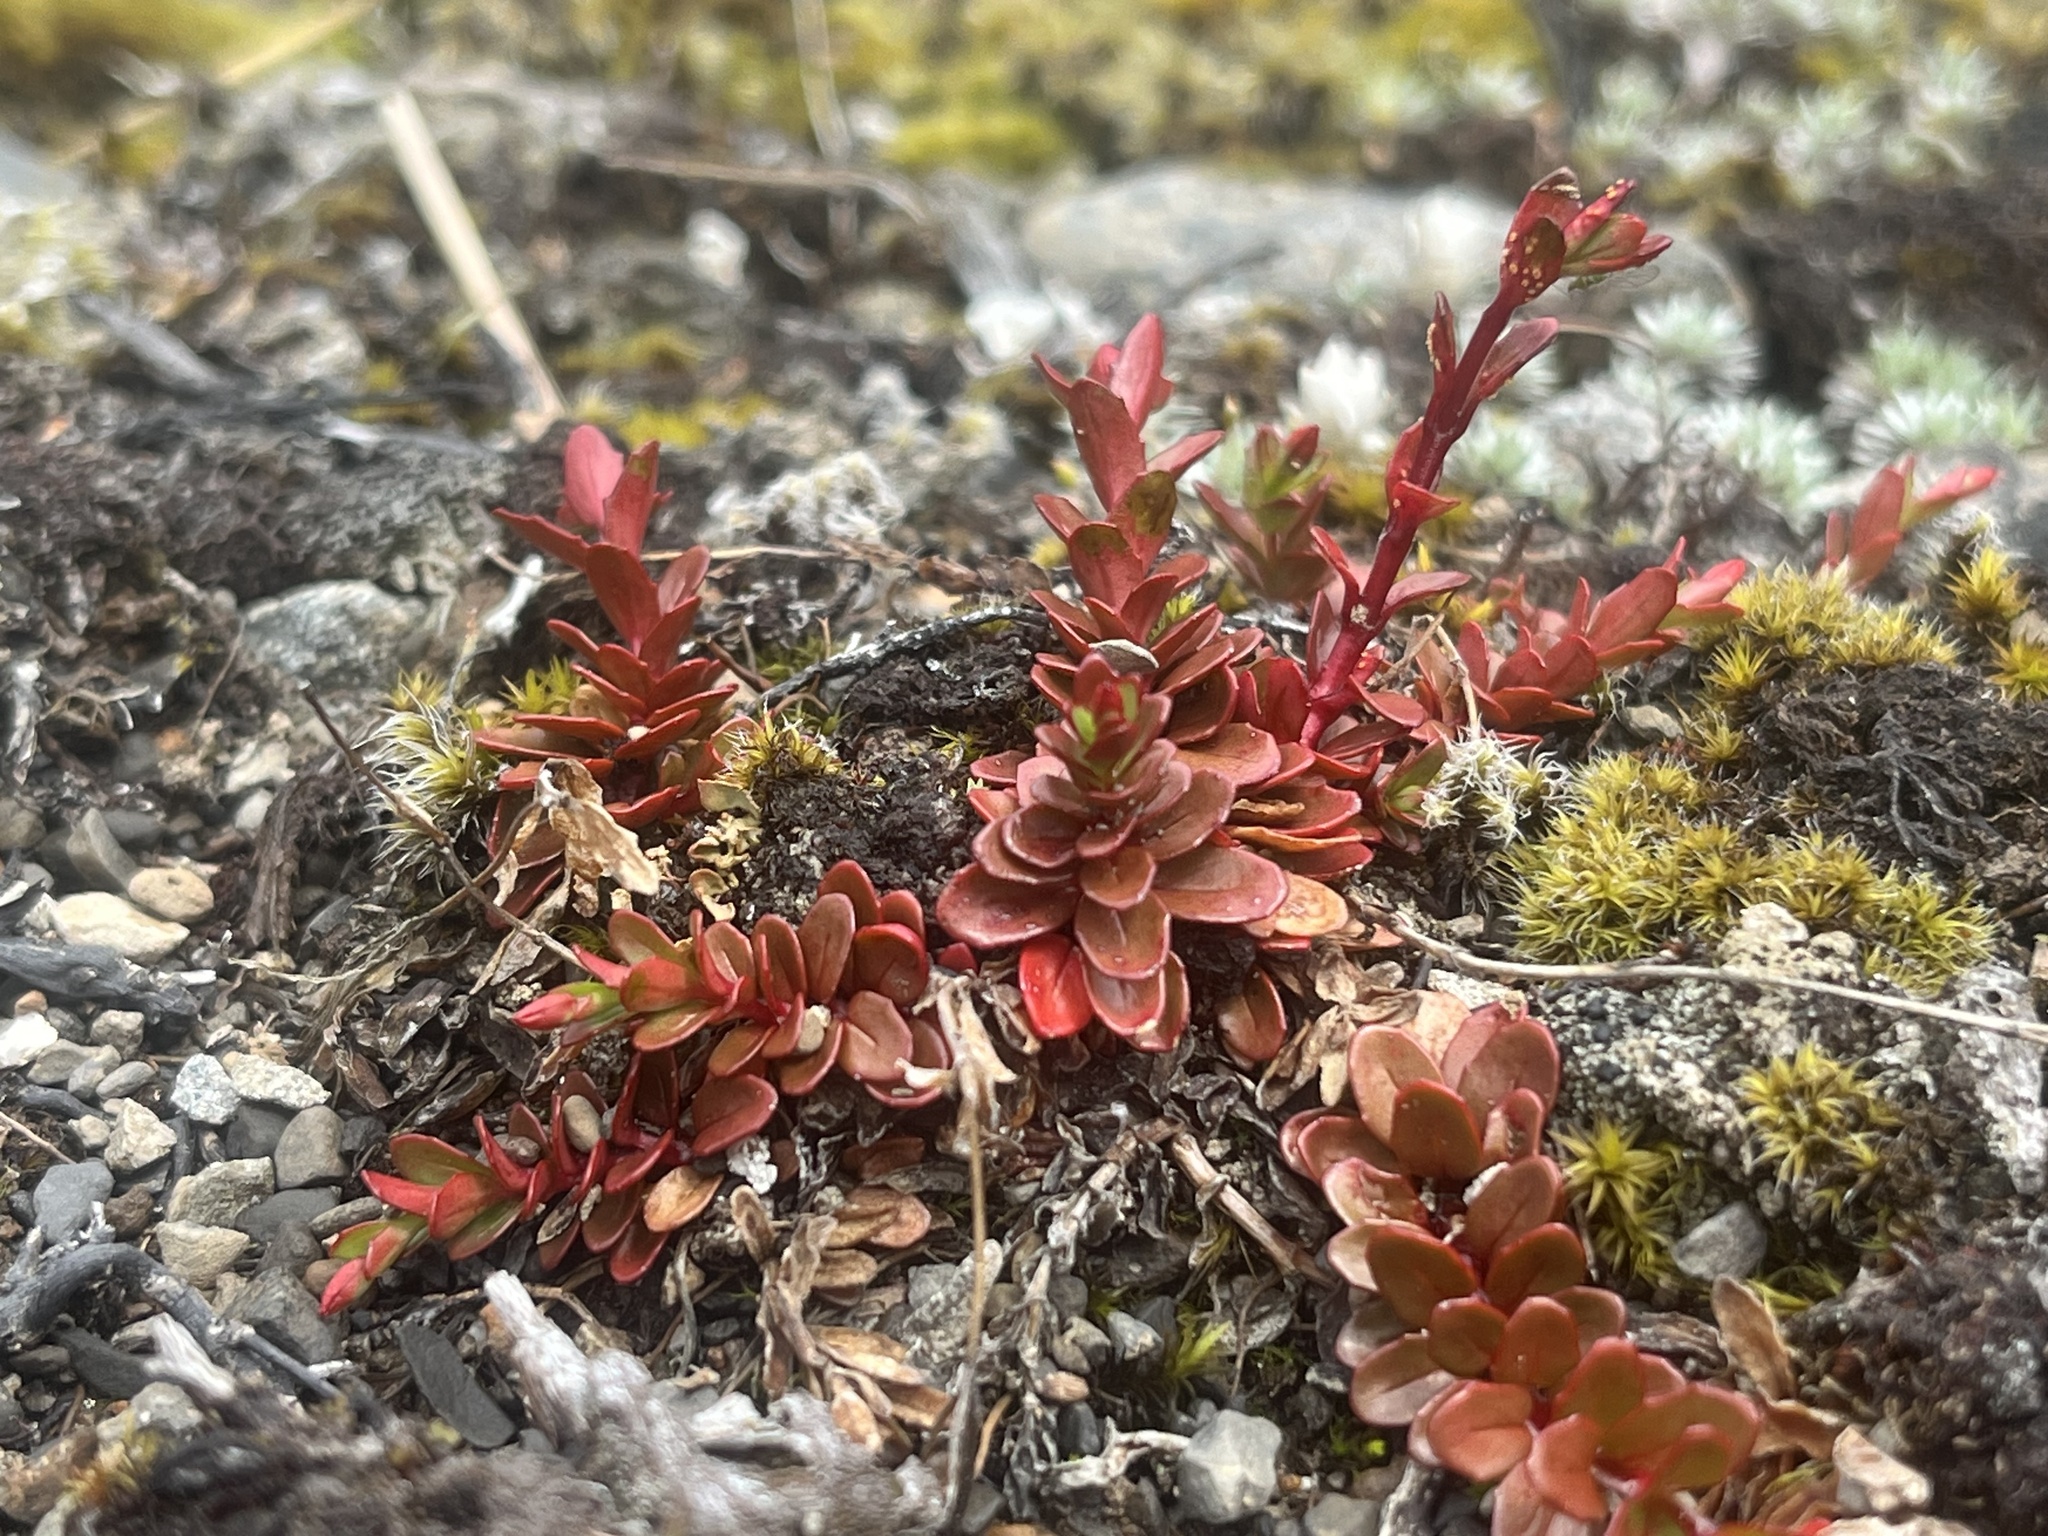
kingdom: Plantae
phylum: Tracheophyta
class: Magnoliopsida
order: Myrtales
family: Onagraceae
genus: Epilobium
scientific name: Epilobium porphyrium
